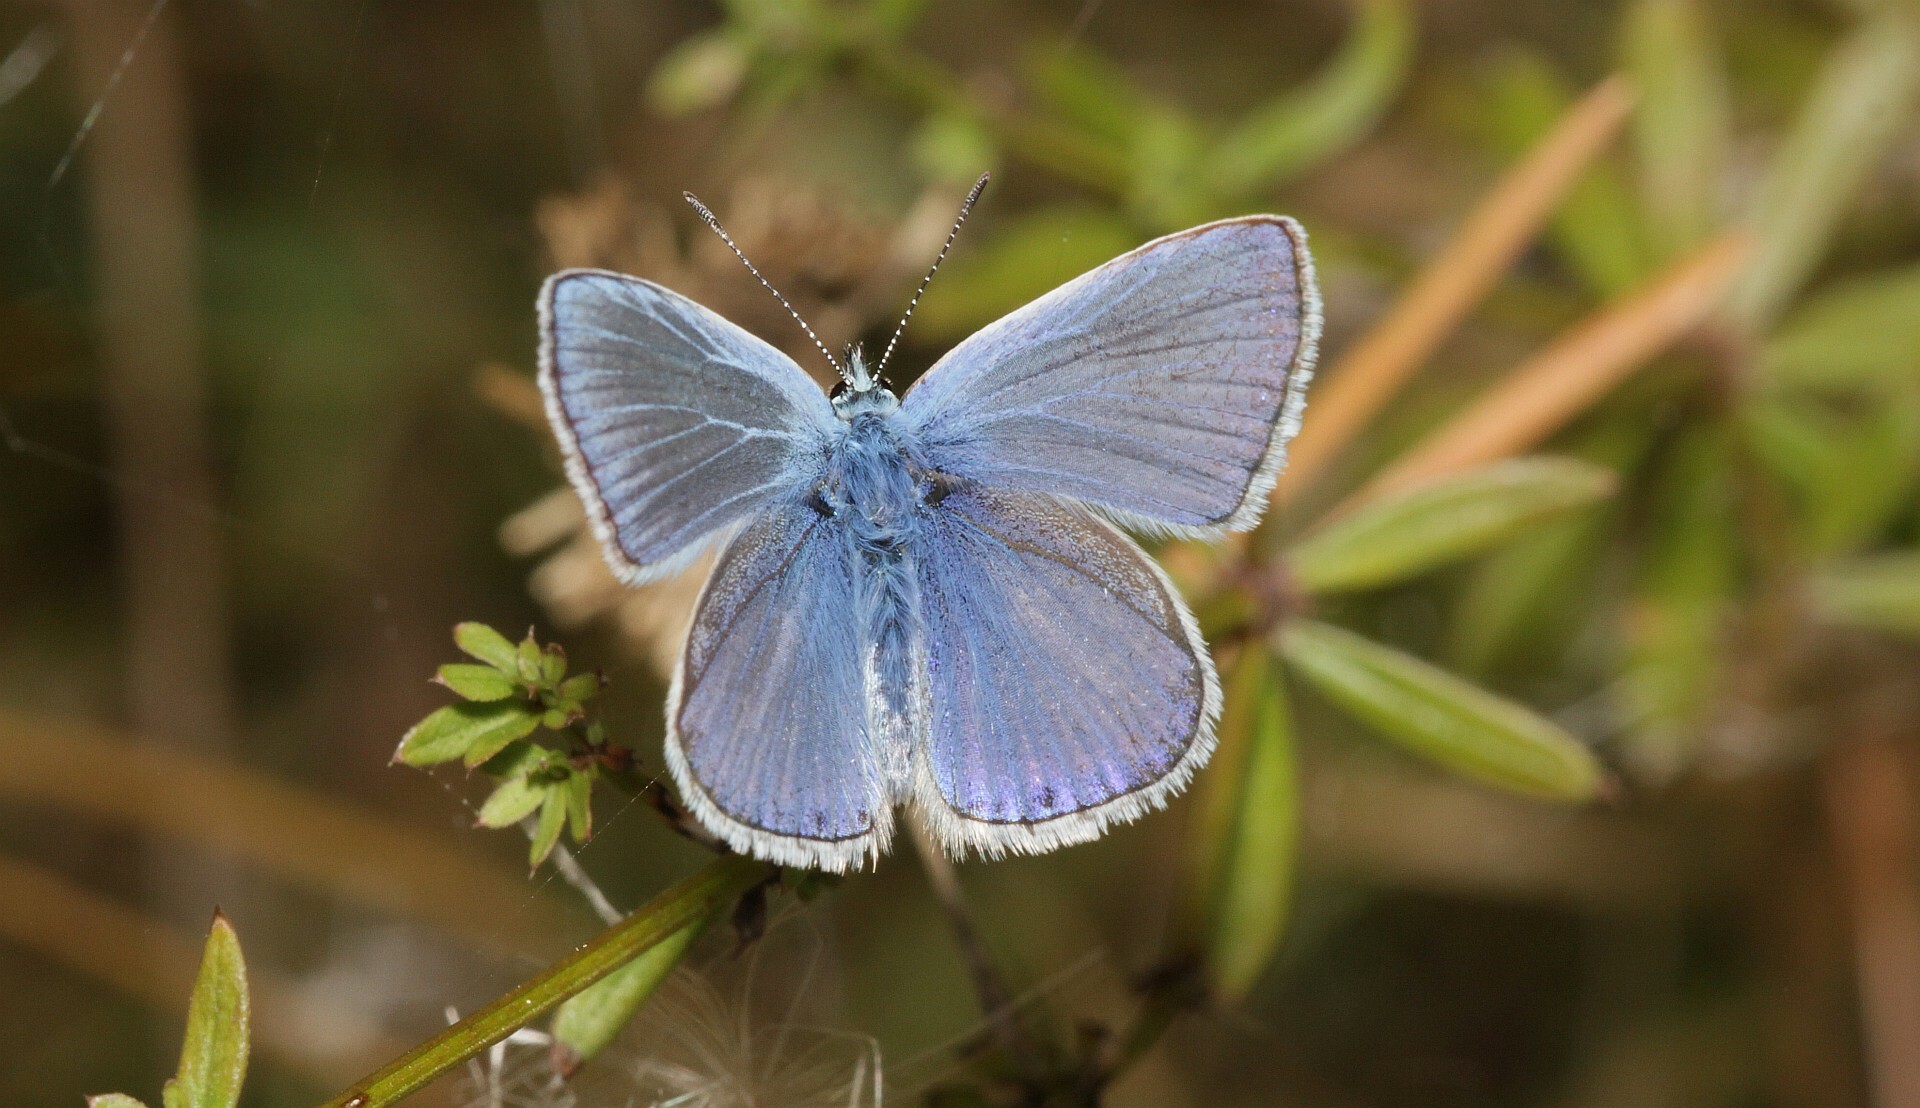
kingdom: Animalia
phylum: Arthropoda
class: Insecta
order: Lepidoptera
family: Lycaenidae
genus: Polyommatus
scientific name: Polyommatus icarus
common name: Common blue
